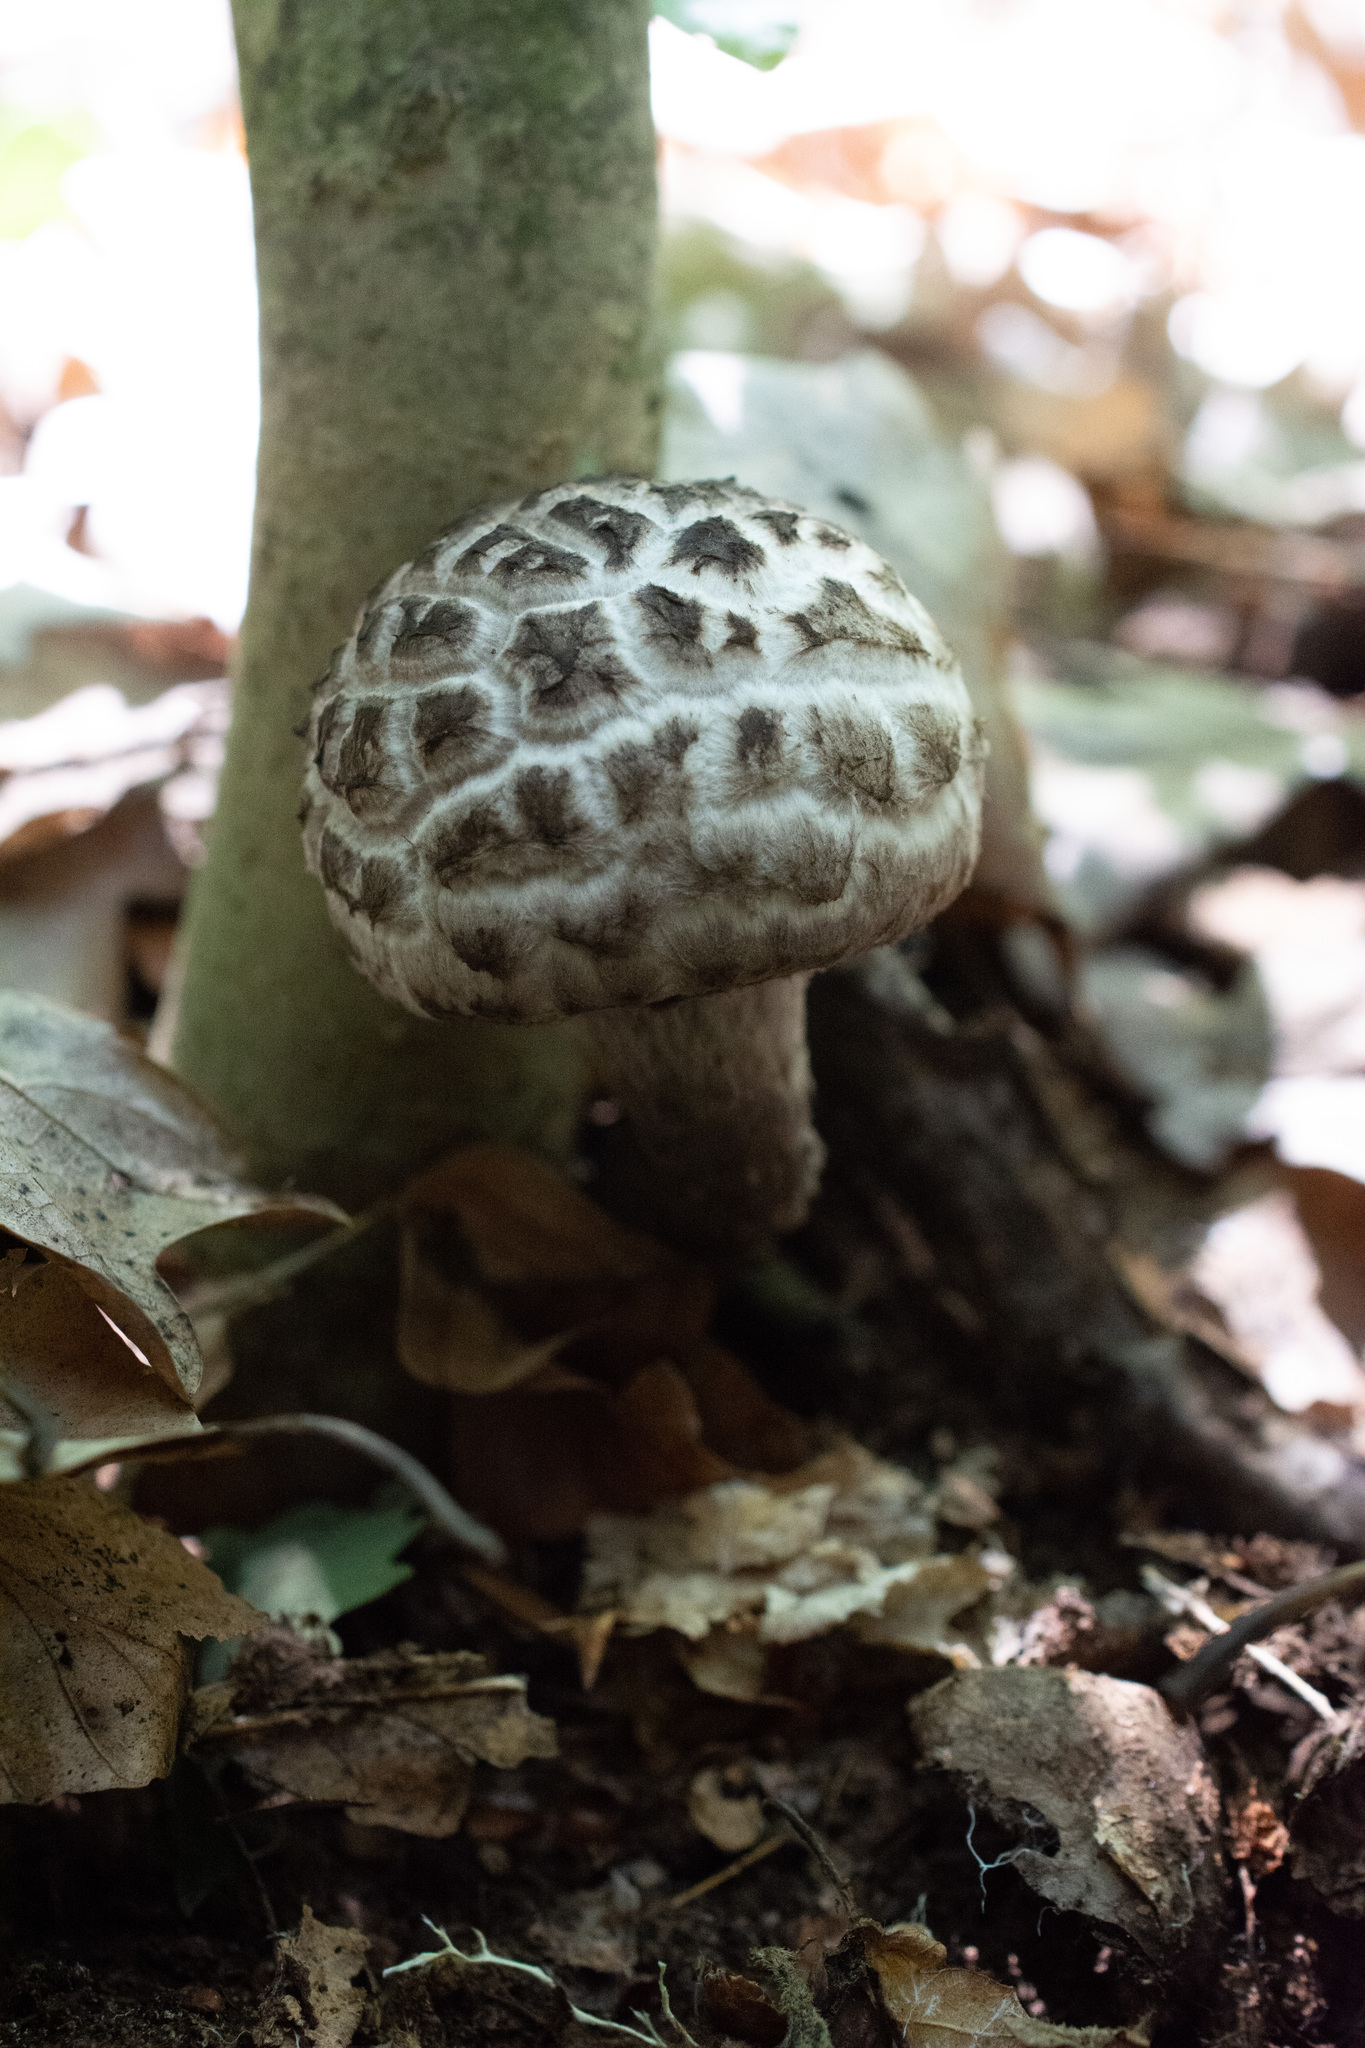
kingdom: Fungi
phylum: Basidiomycota
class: Agaricomycetes
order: Boletales
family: Boletaceae
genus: Strobilomyces
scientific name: Strobilomyces strobilaceus
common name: Old man of the woods
